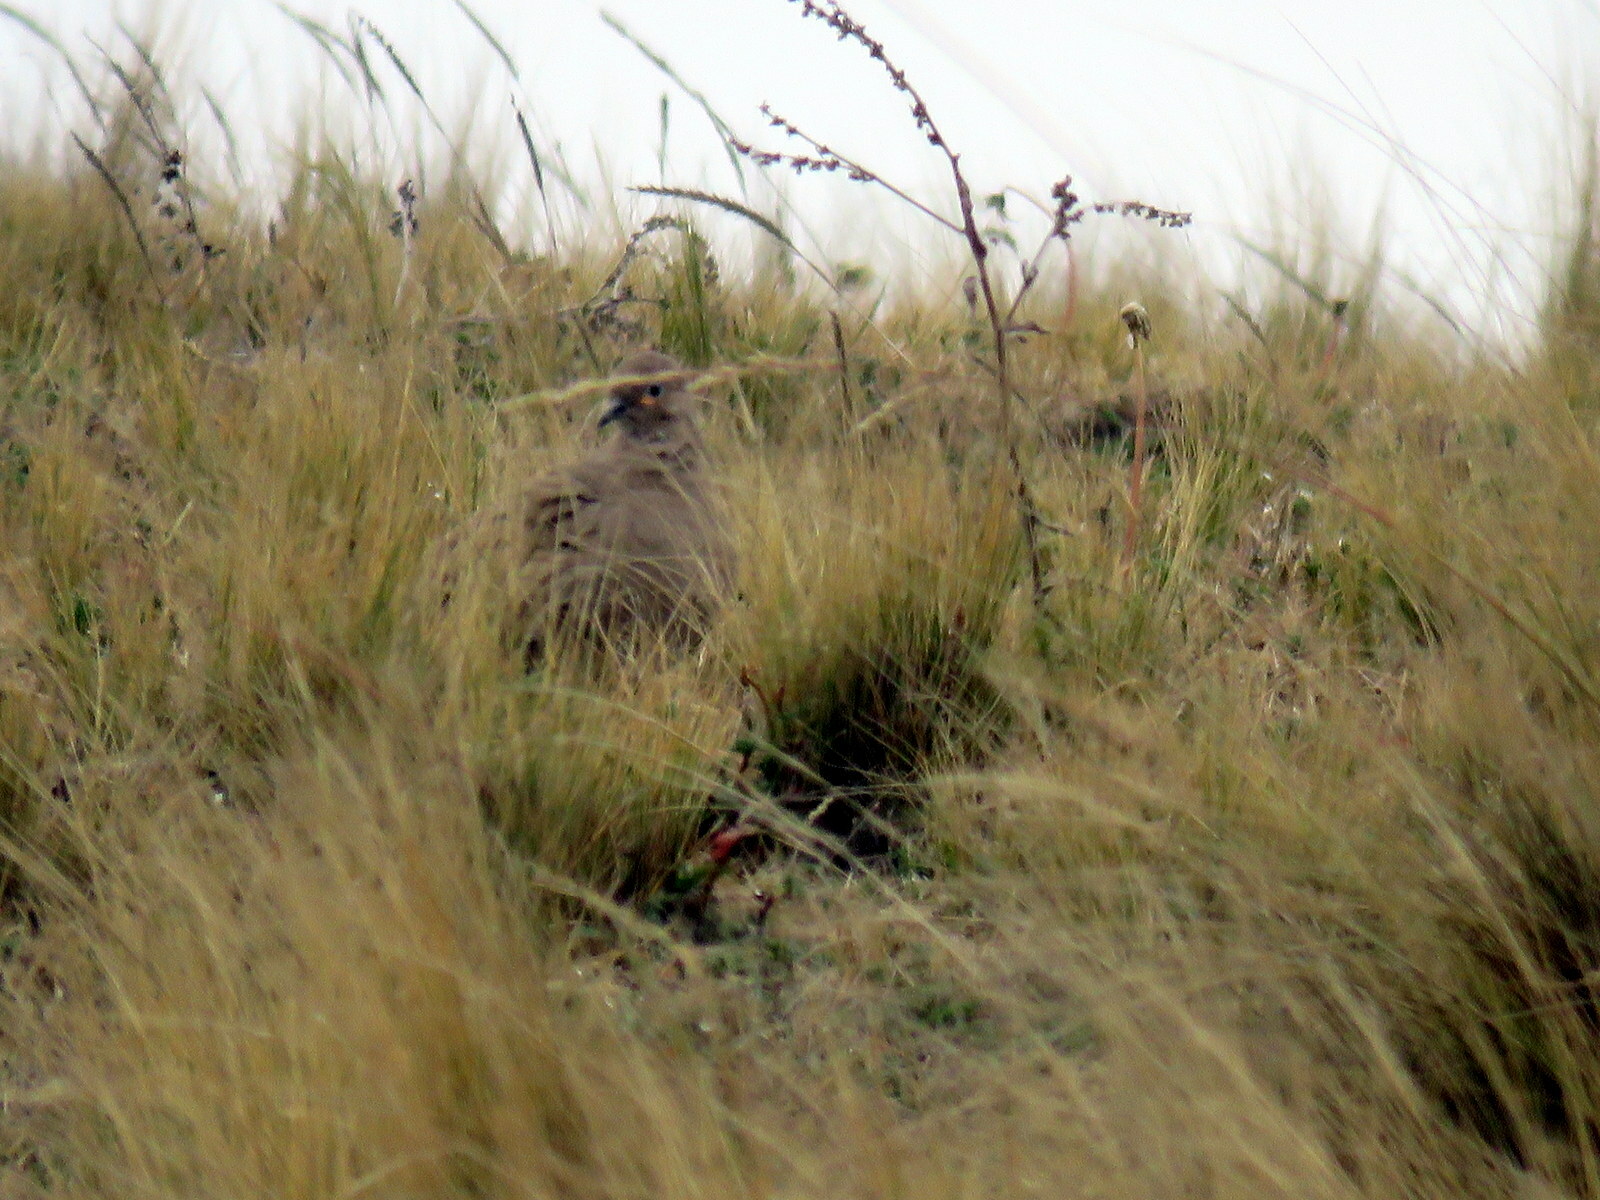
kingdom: Animalia
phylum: Chordata
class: Aves
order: Columbiformes
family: Columbidae
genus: Metriopelia
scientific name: Metriopelia melanoptera
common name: Black-winged ground dove
